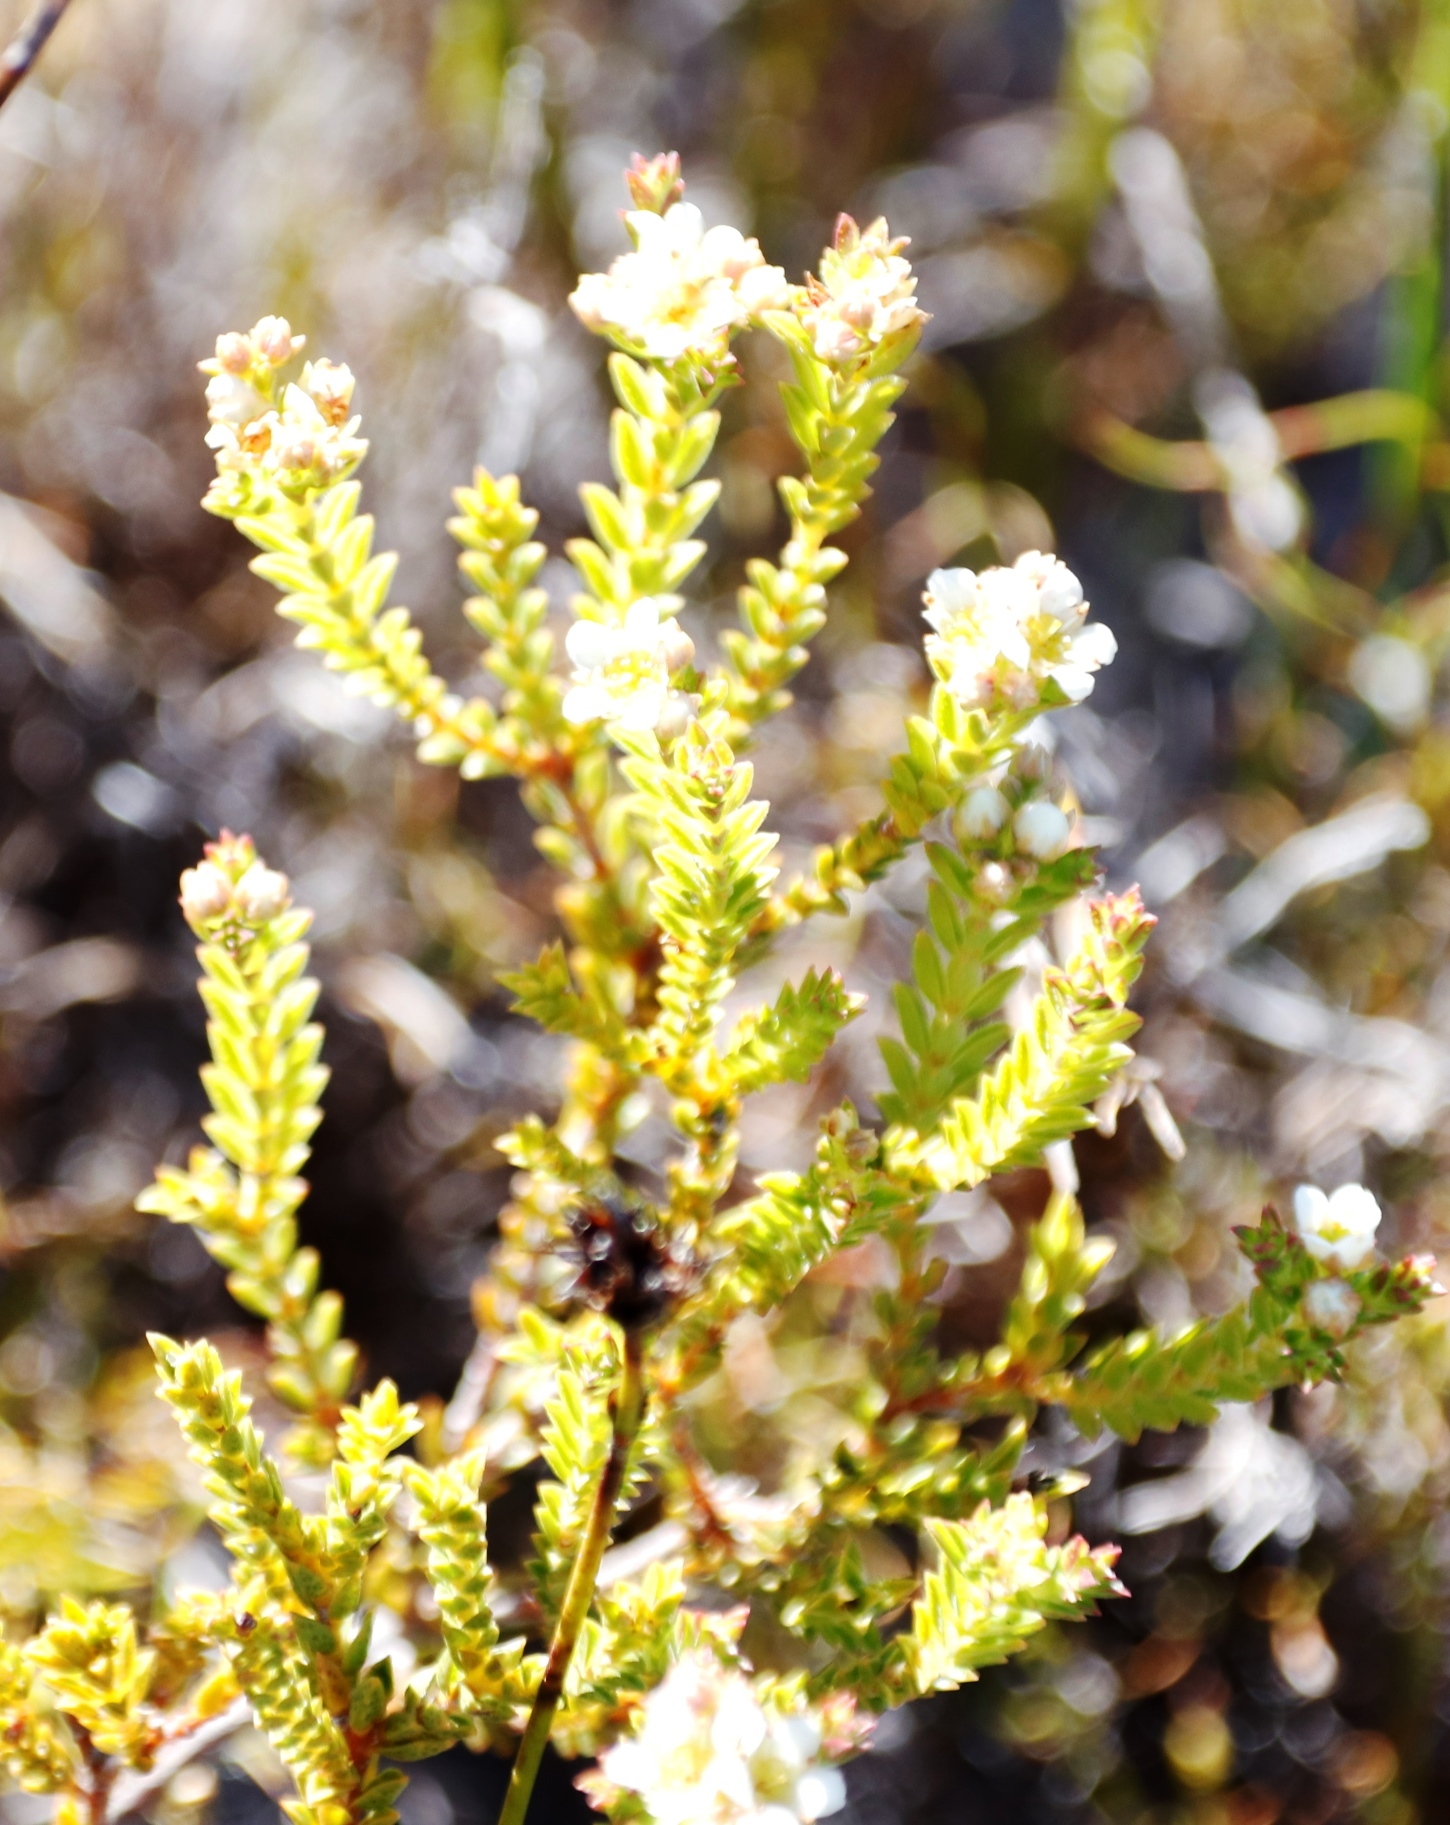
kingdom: Plantae
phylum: Tracheophyta
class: Magnoliopsida
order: Sapindales
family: Rutaceae
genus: Diosma
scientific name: Diosma oppositifolia
